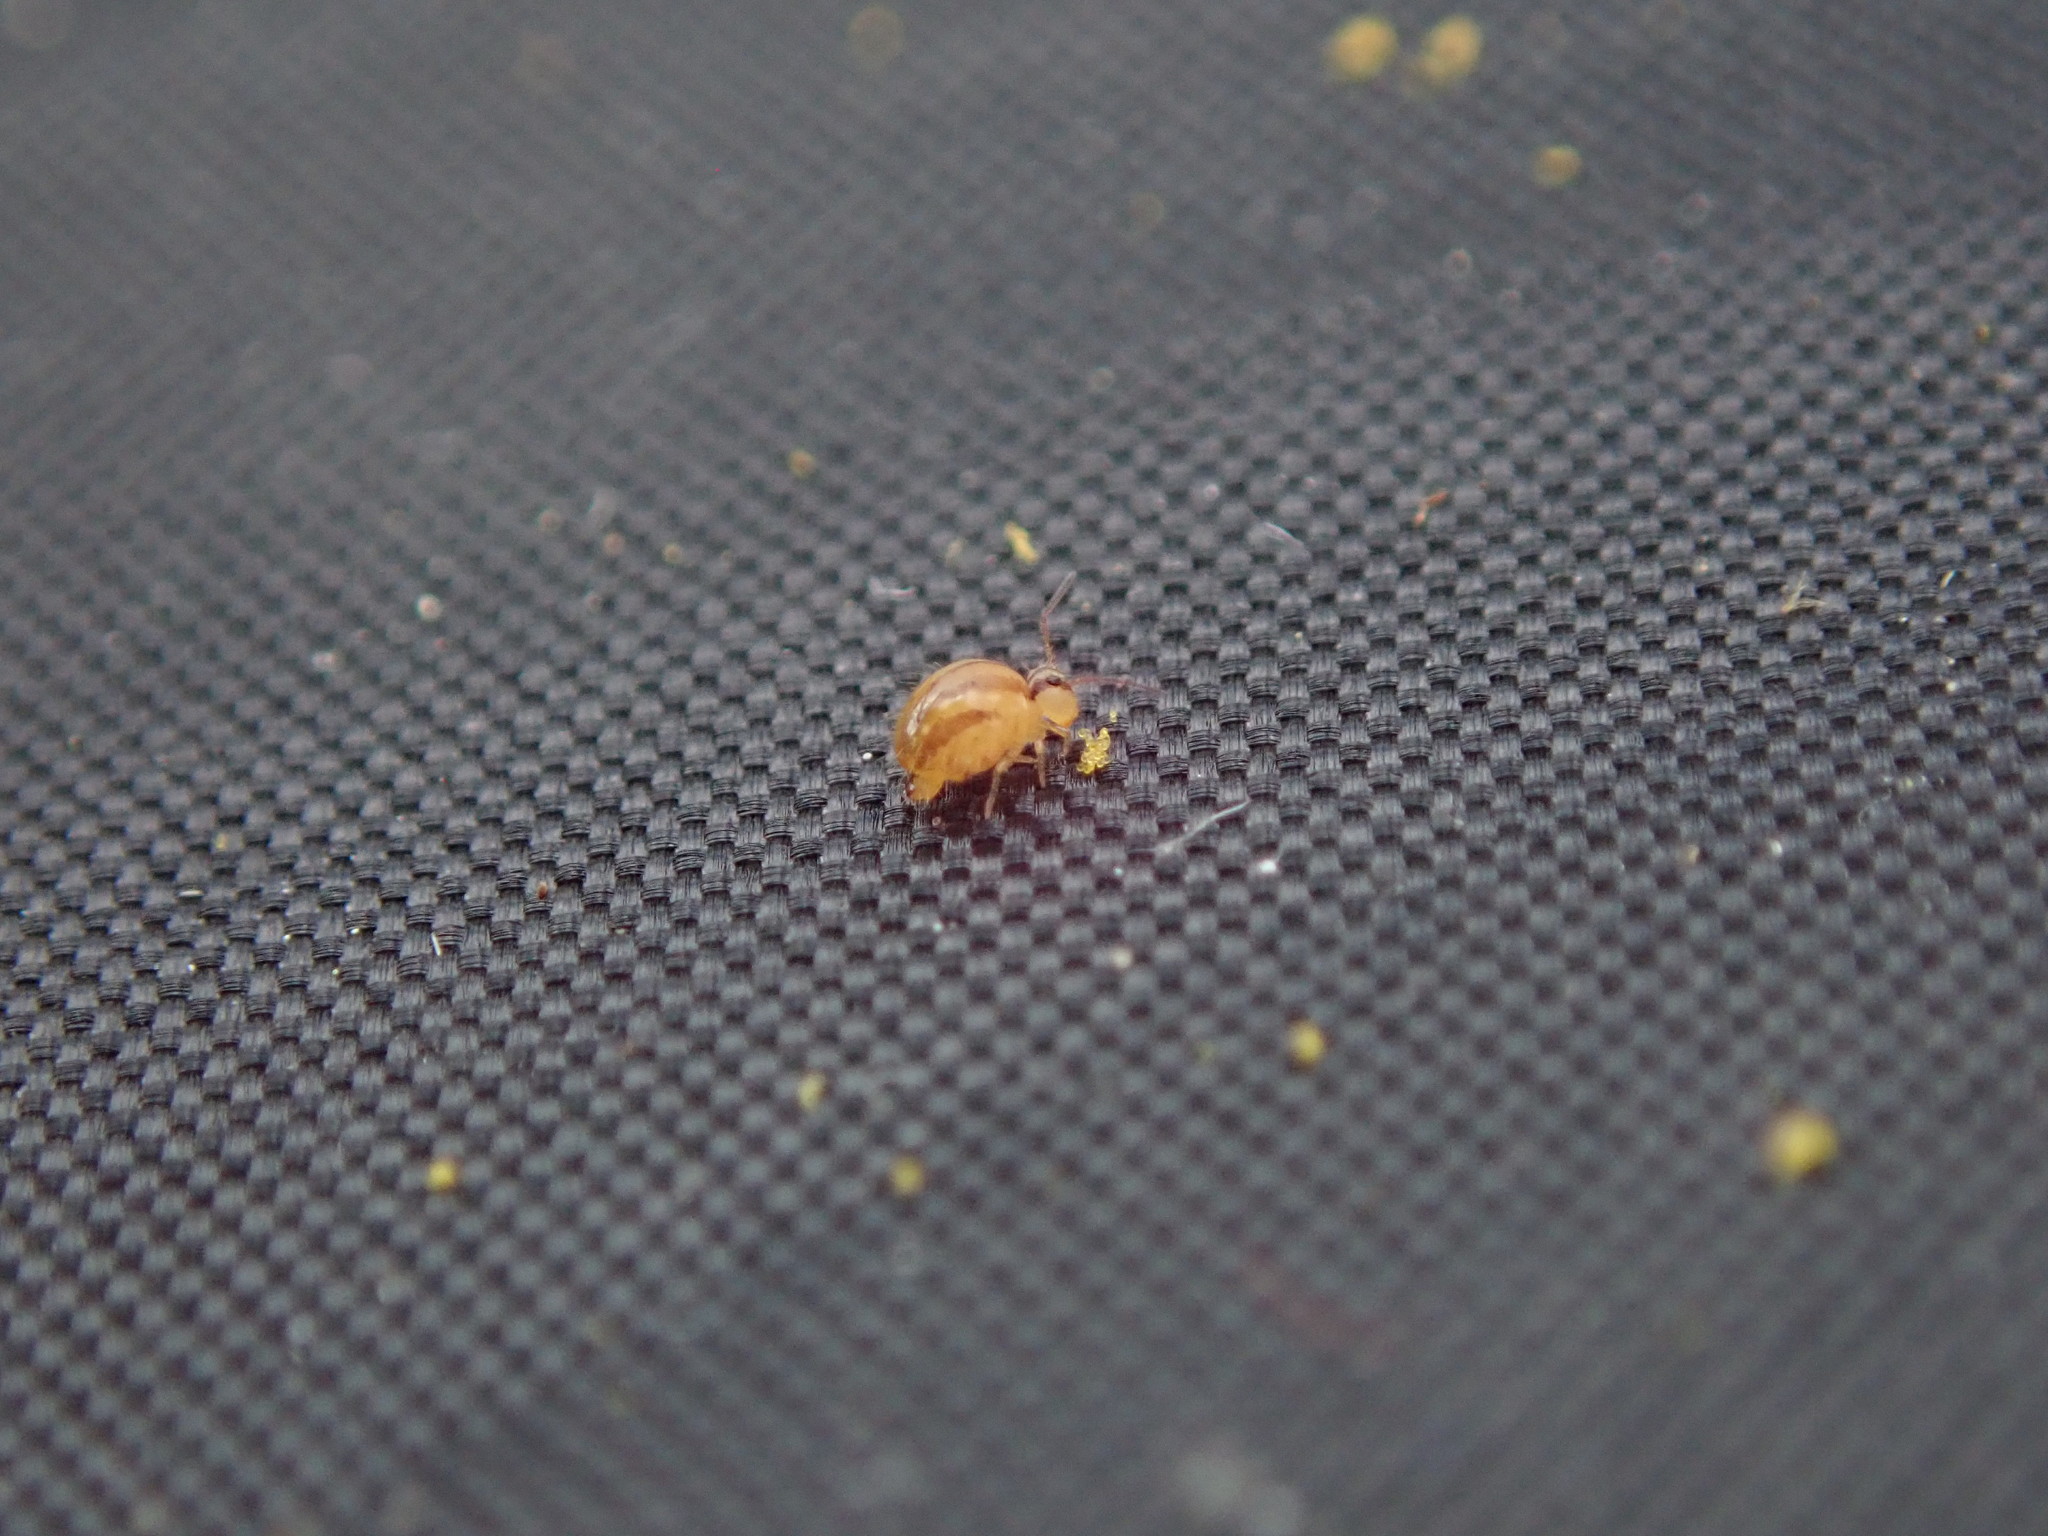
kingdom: Animalia
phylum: Arthropoda
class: Collembola
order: Symphypleona
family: Sminthuridae
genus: Sminthurus
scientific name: Sminthurus mencenbergae
